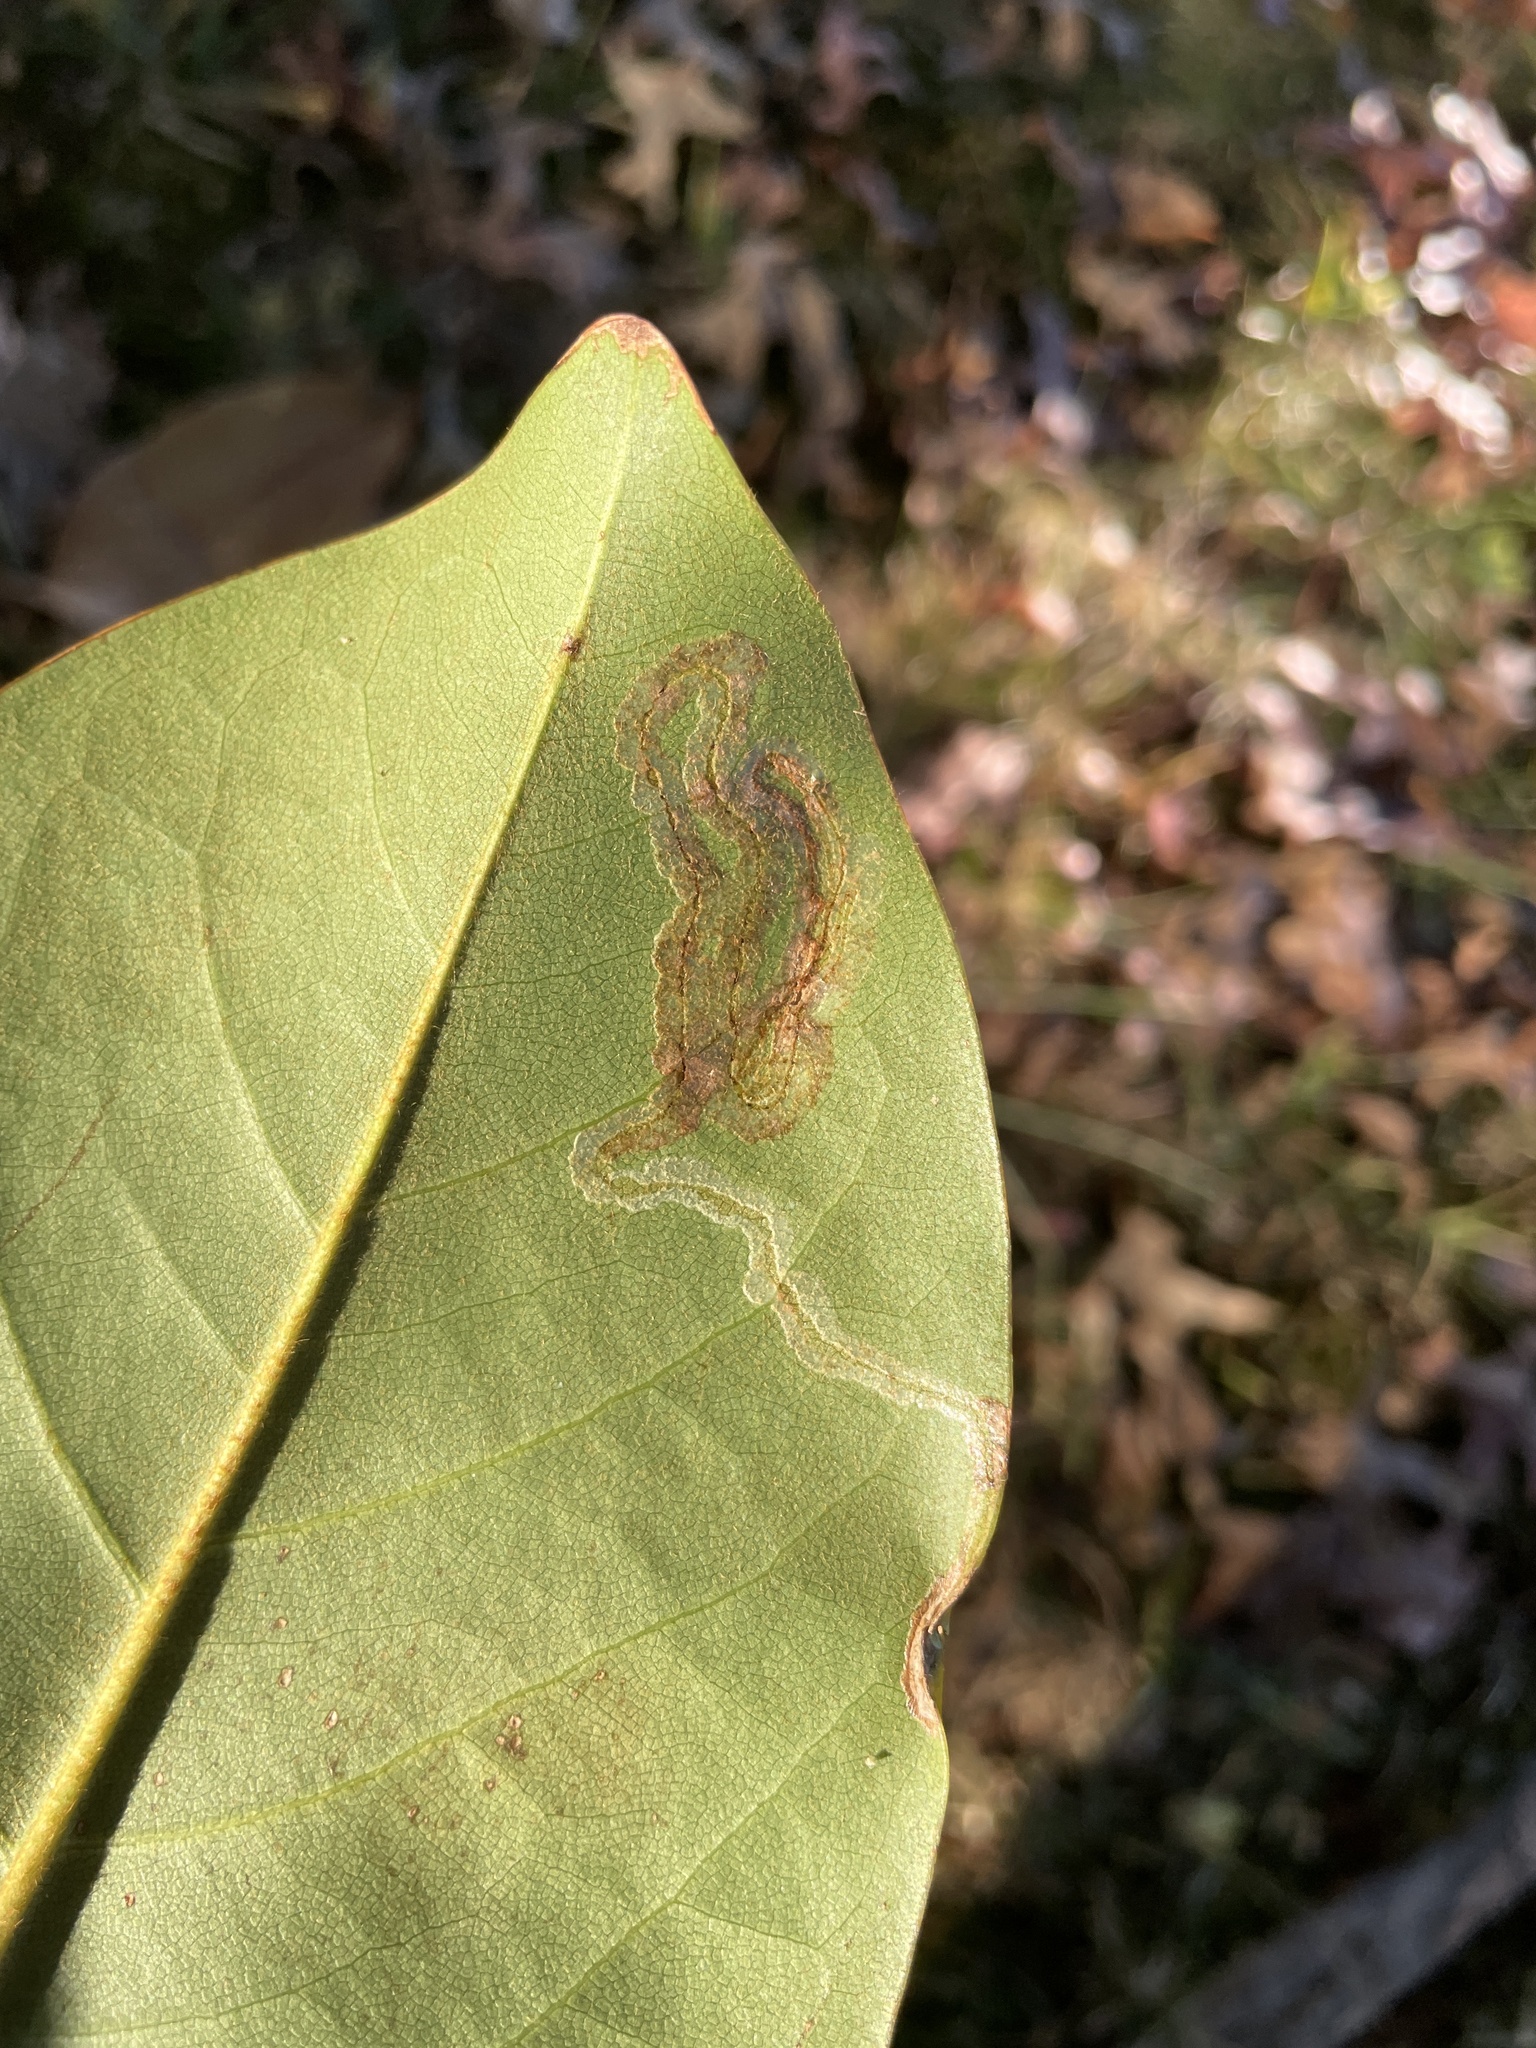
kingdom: Animalia
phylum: Arthropoda
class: Insecta
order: Lepidoptera
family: Gracillariidae
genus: Phyllocnistis
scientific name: Phyllocnistis liriodendronella
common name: Tulip tree leaf miner
